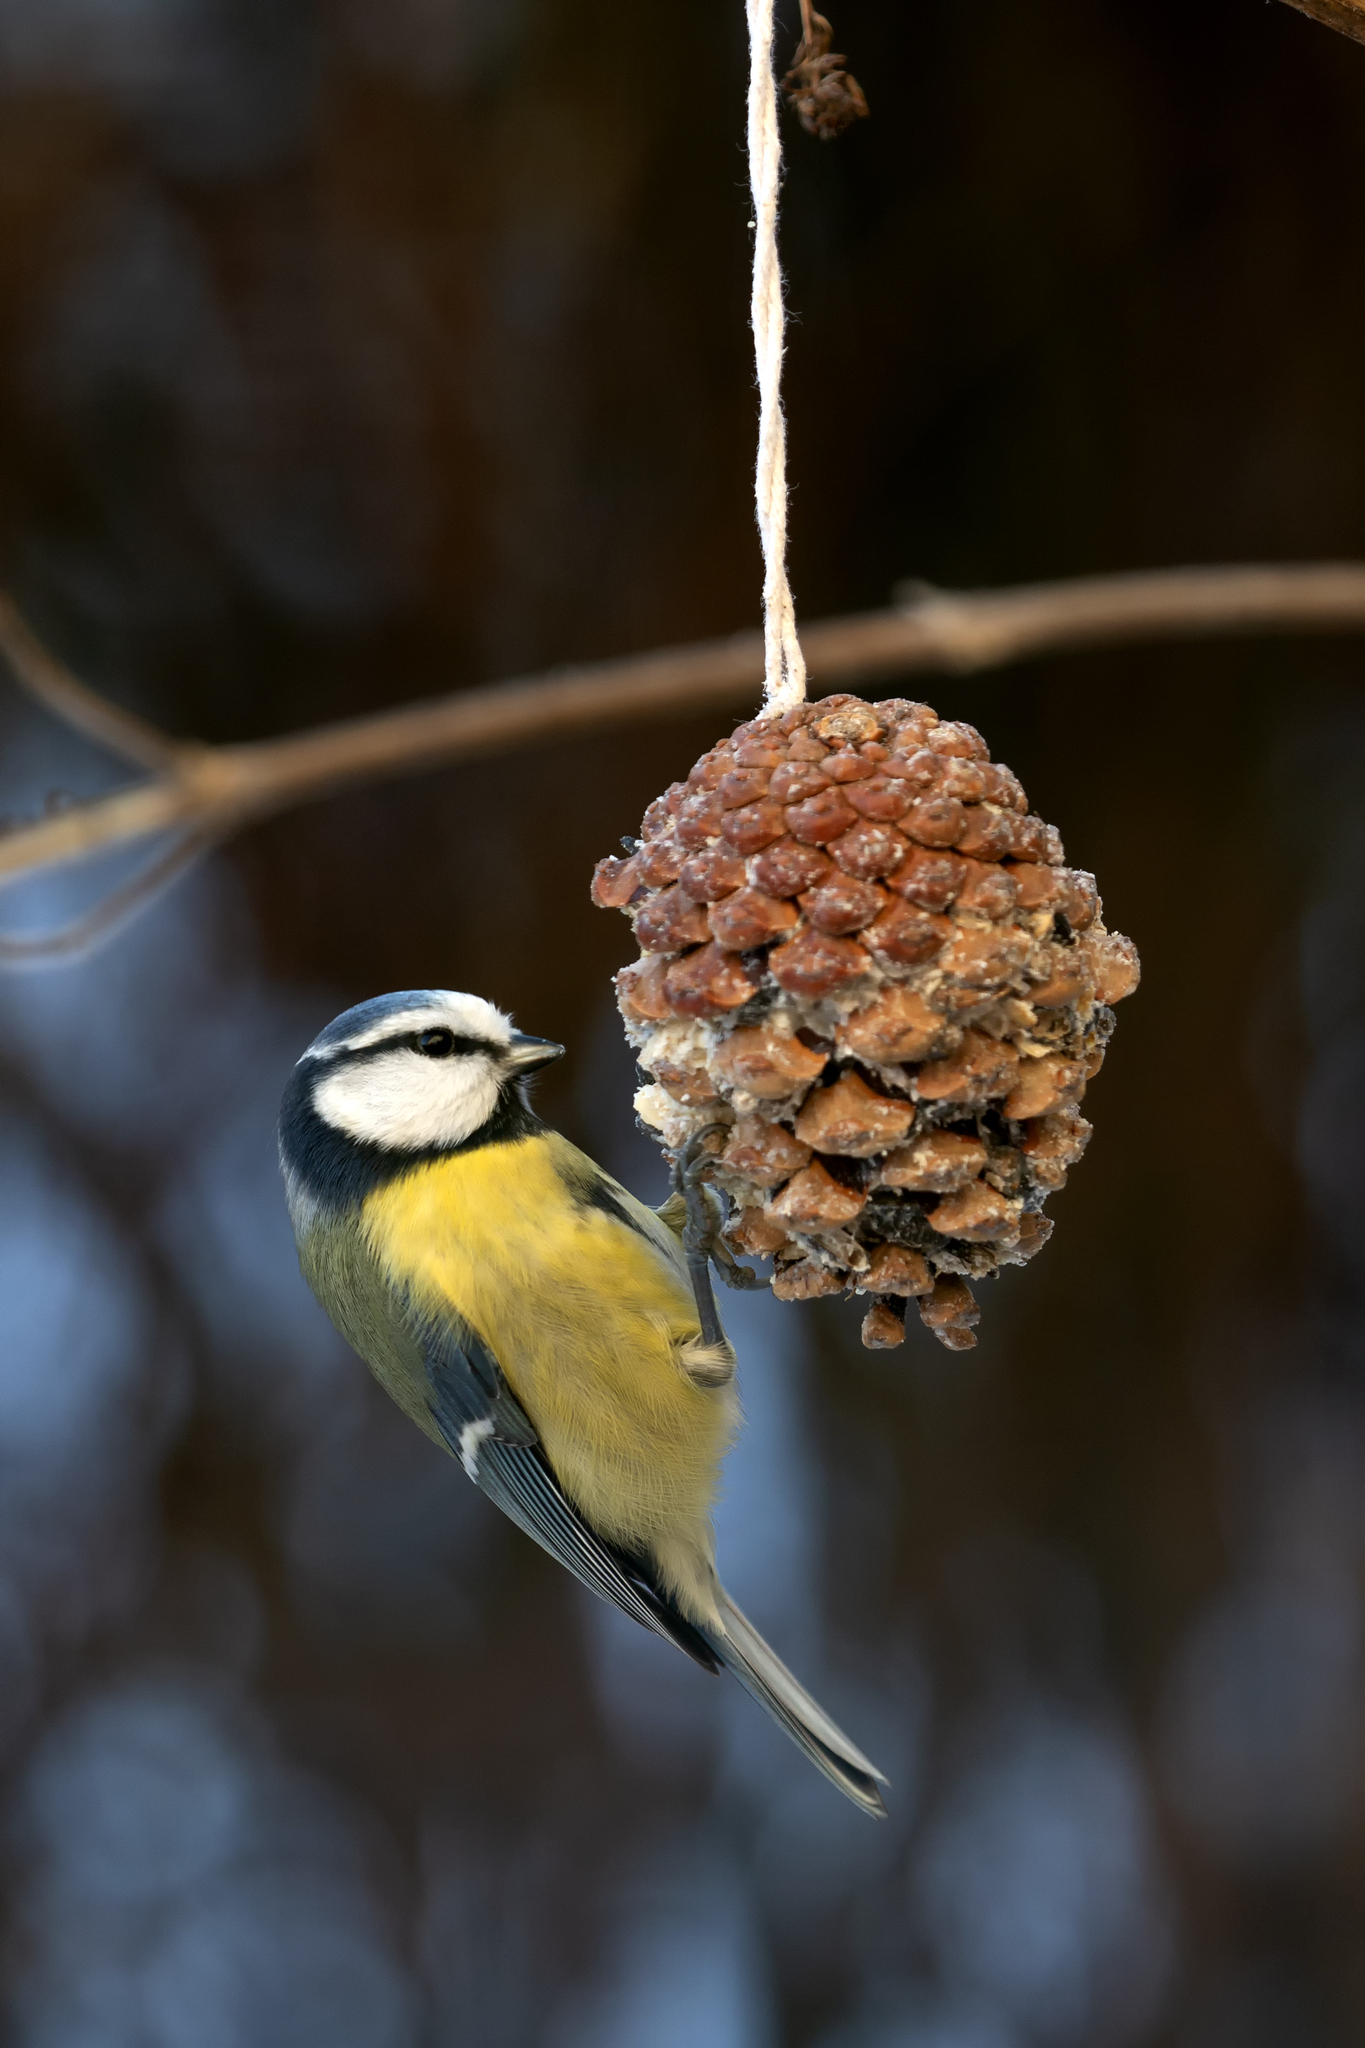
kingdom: Animalia
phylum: Chordata
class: Aves
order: Passeriformes
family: Paridae
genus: Cyanistes
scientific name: Cyanistes caeruleus
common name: Eurasian blue tit
